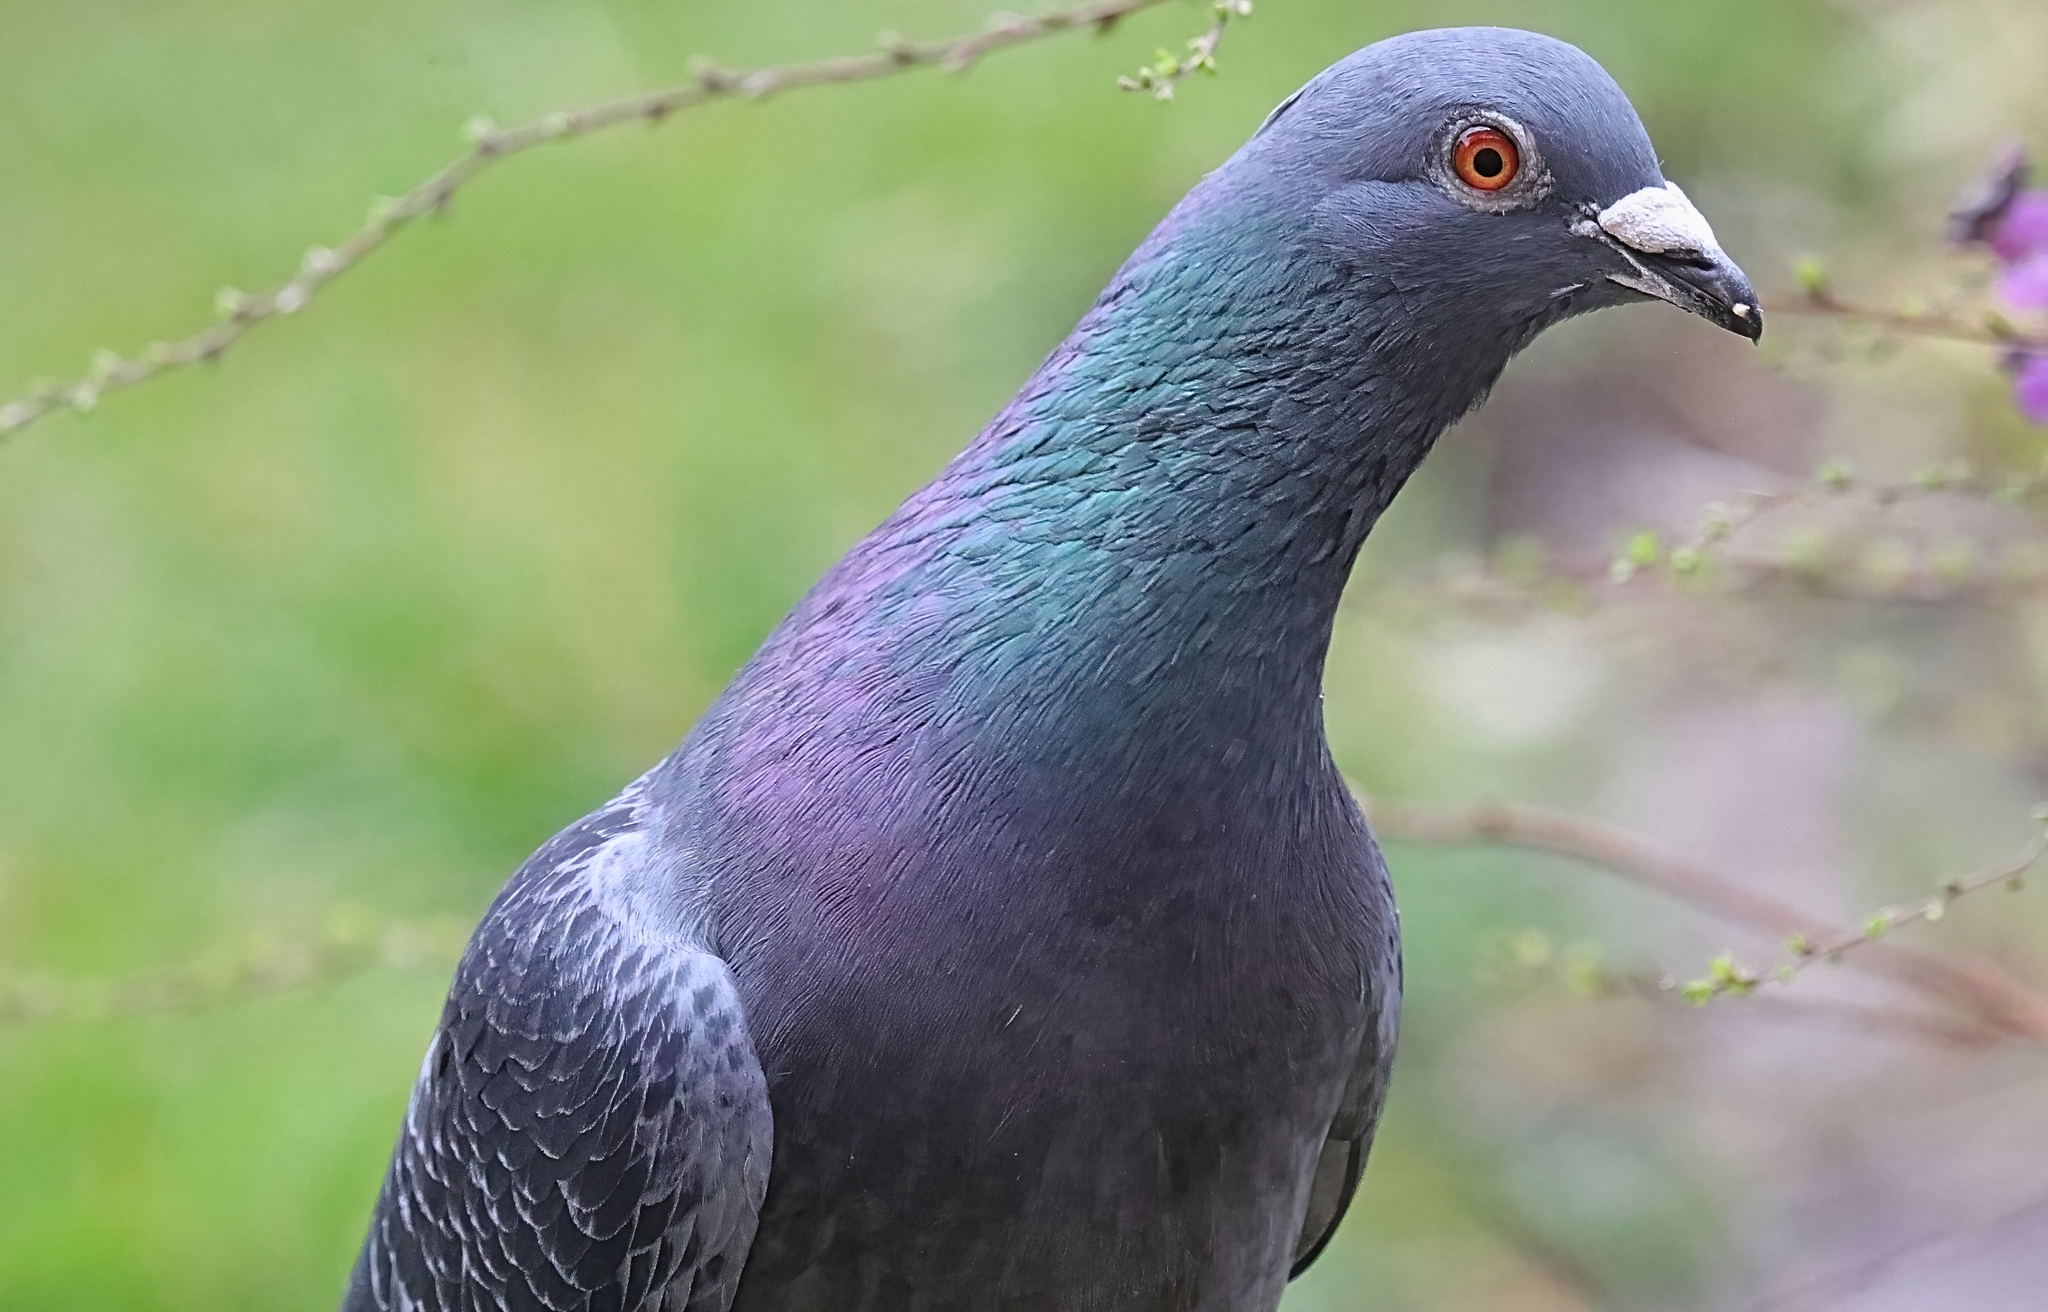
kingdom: Animalia
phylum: Chordata
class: Aves
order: Columbiformes
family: Columbidae
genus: Columba
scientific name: Columba livia
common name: Rock pigeon
